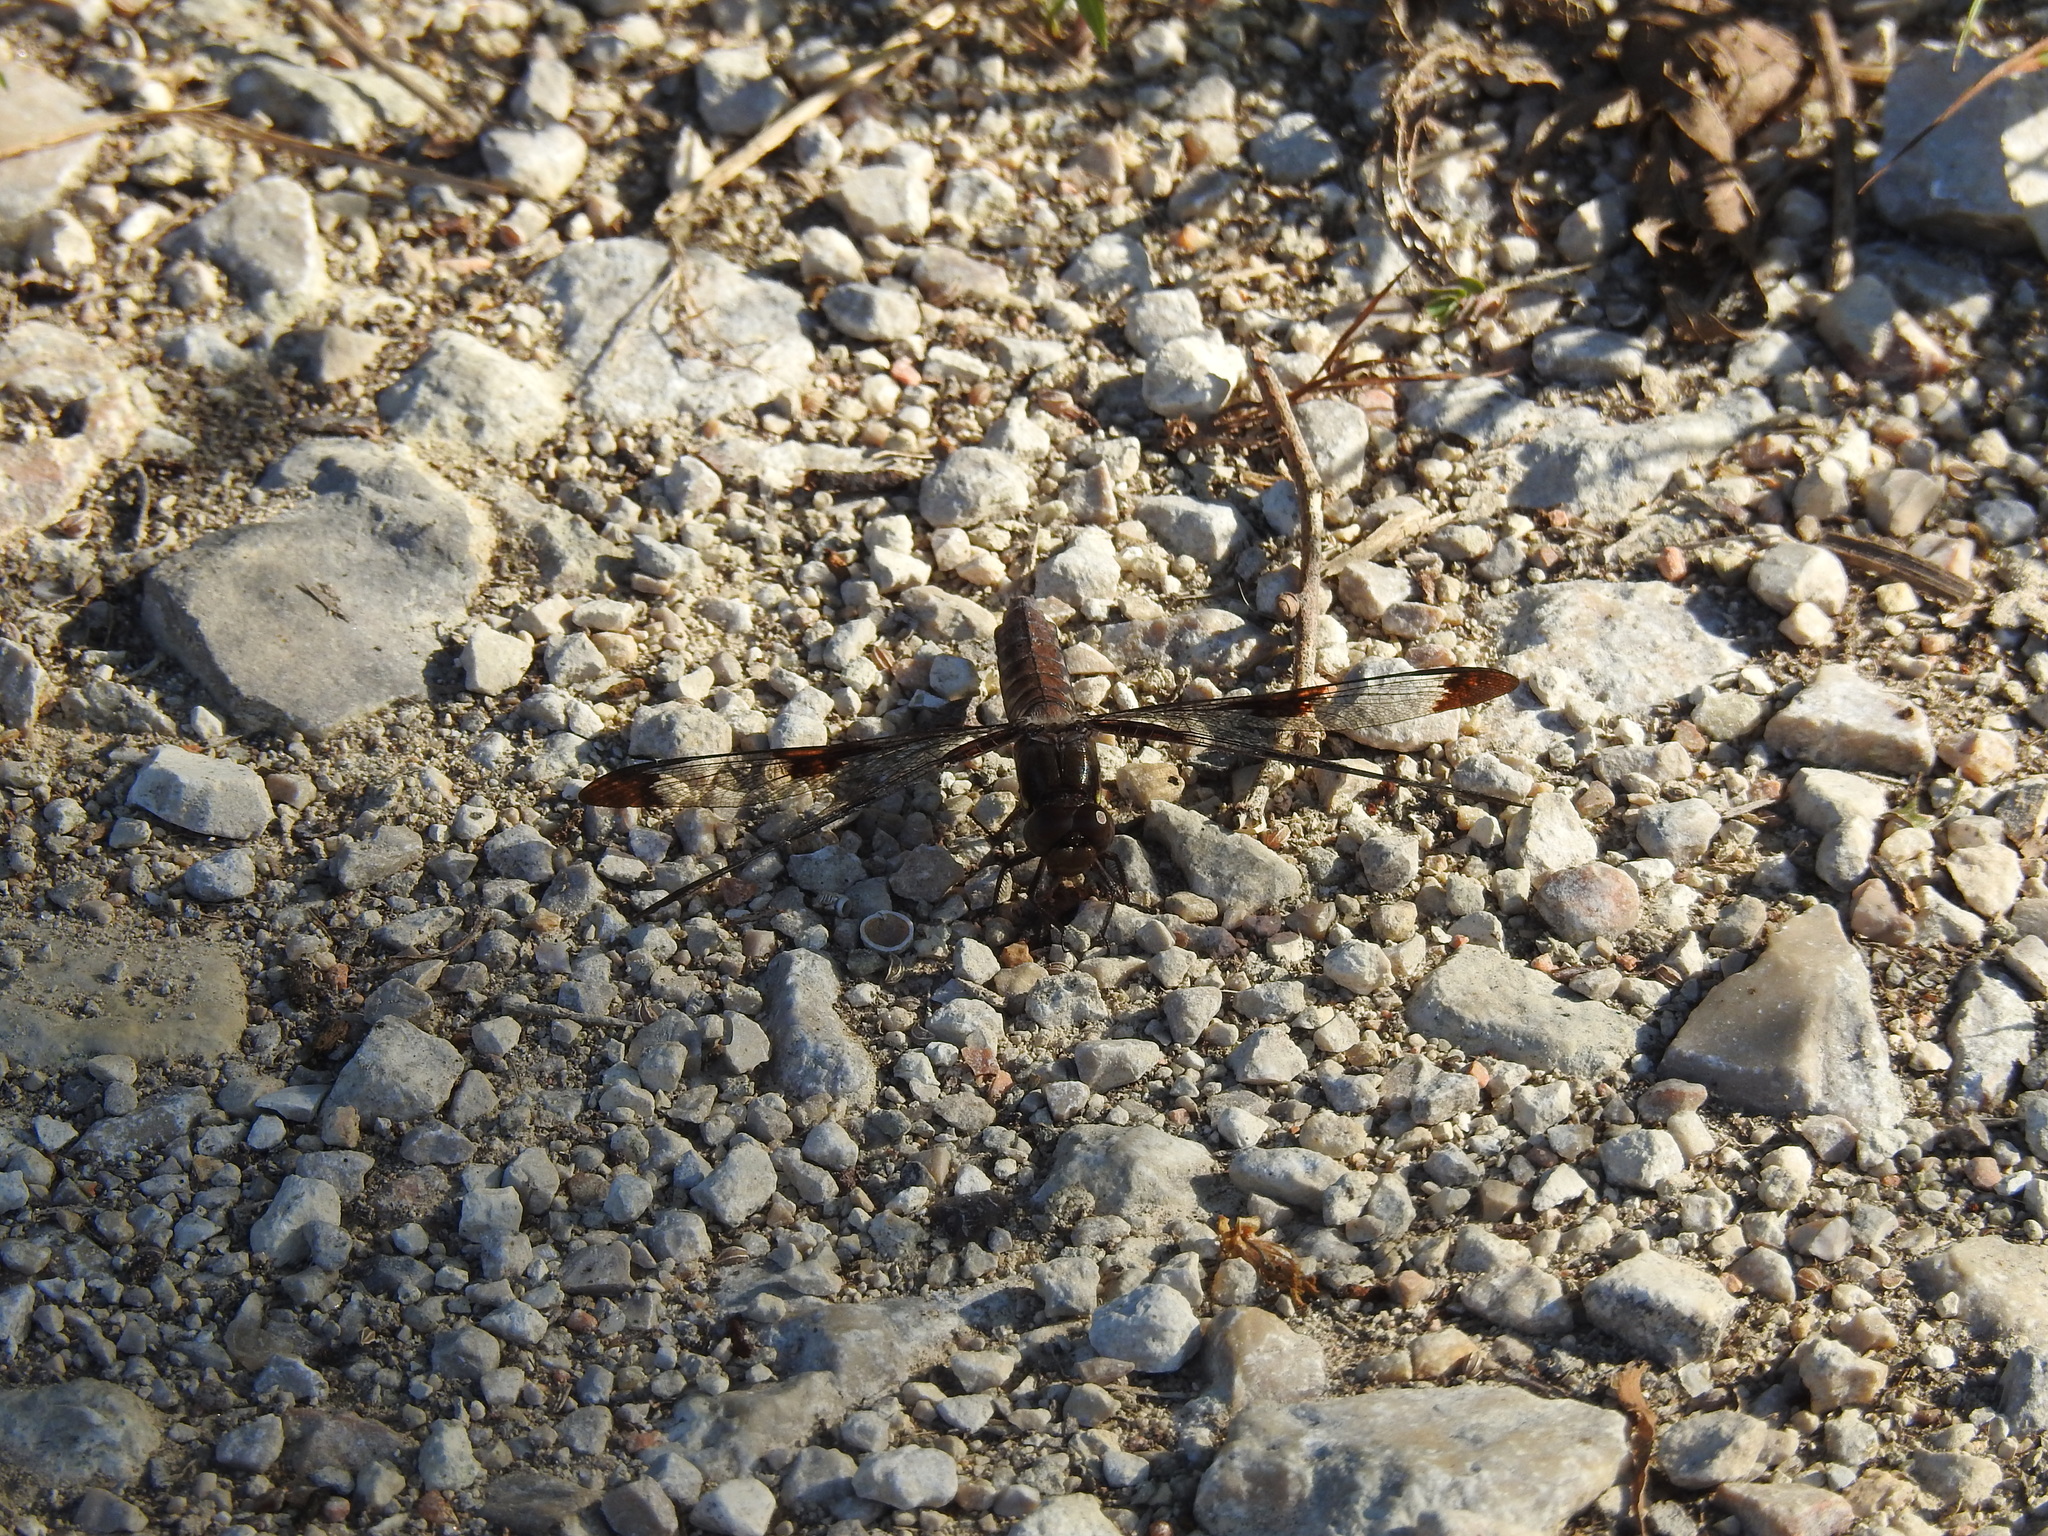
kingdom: Animalia
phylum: Arthropoda
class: Insecta
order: Odonata
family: Libellulidae
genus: Plathemis
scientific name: Plathemis lydia
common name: Common whitetail
